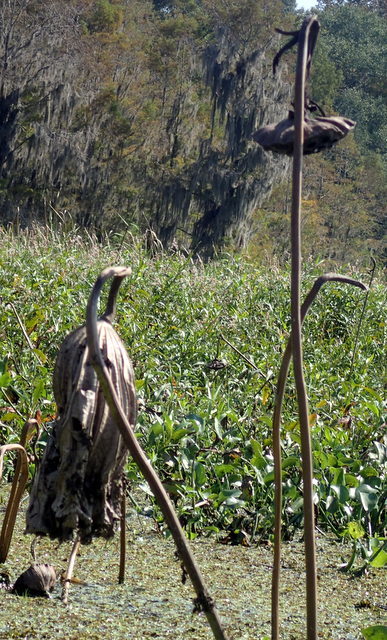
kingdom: Plantae
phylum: Tracheophyta
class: Magnoliopsida
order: Proteales
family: Nelumbonaceae
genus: Nelumbo
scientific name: Nelumbo lutea
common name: American lotus
